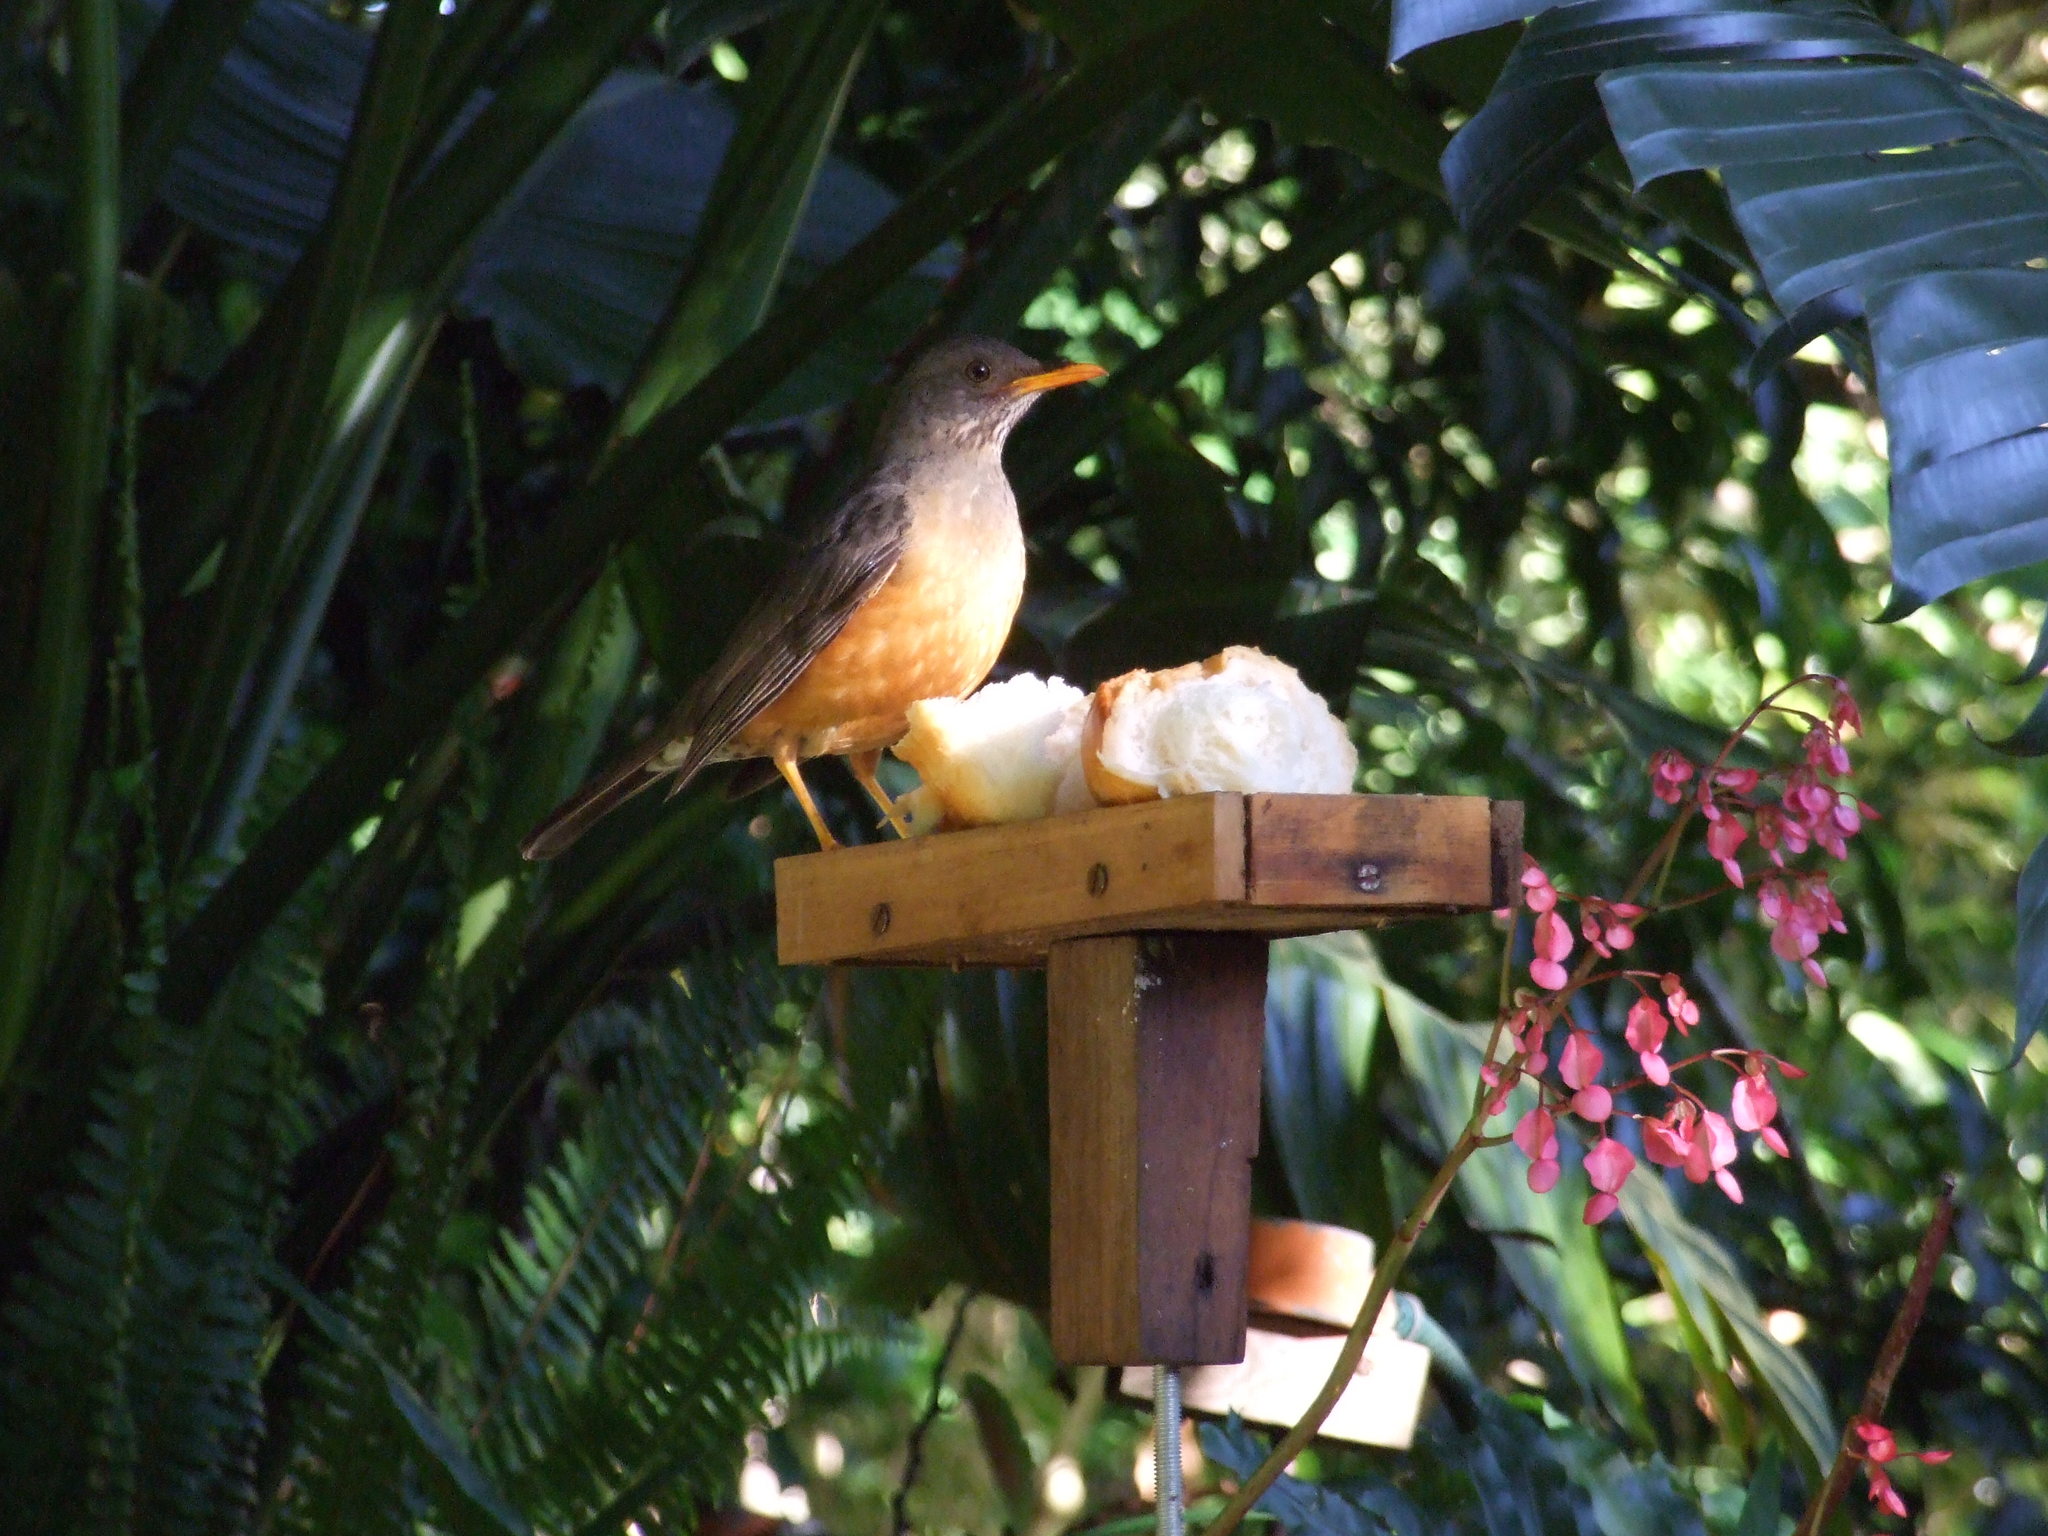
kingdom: Animalia
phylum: Chordata
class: Aves
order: Passeriformes
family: Turdidae
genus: Turdus
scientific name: Turdus olivaceus
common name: Olive thrush
